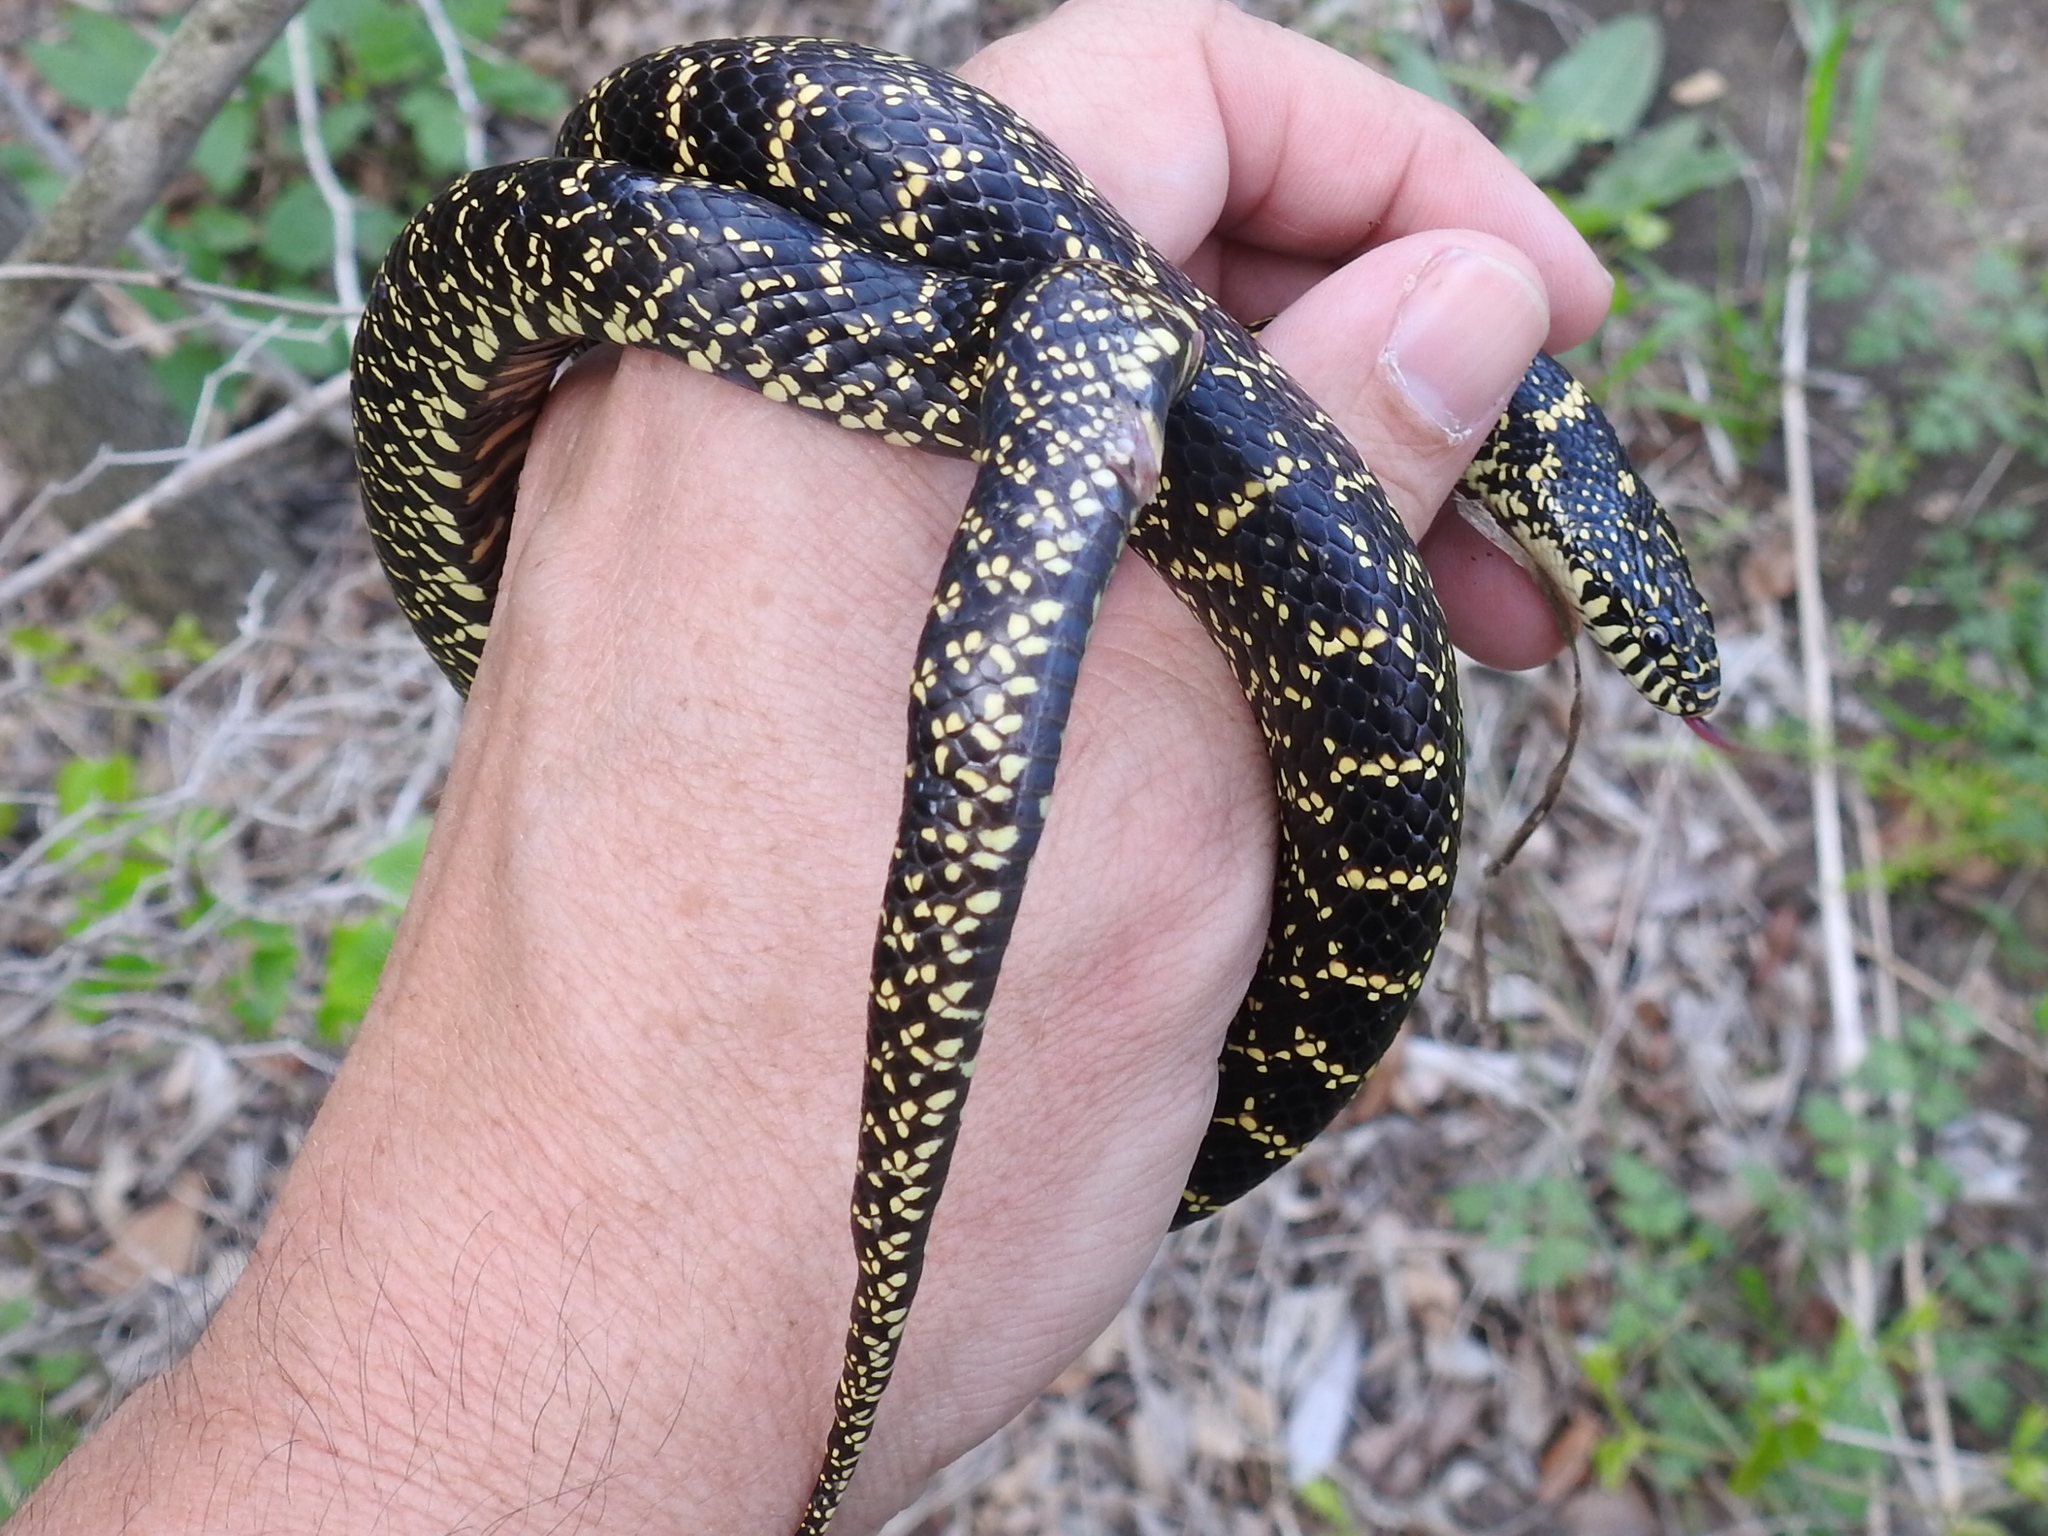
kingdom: Animalia
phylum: Chordata
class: Squamata
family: Colubridae
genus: Lampropeltis
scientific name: Lampropeltis holbrooki
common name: Speckled kingsnake
